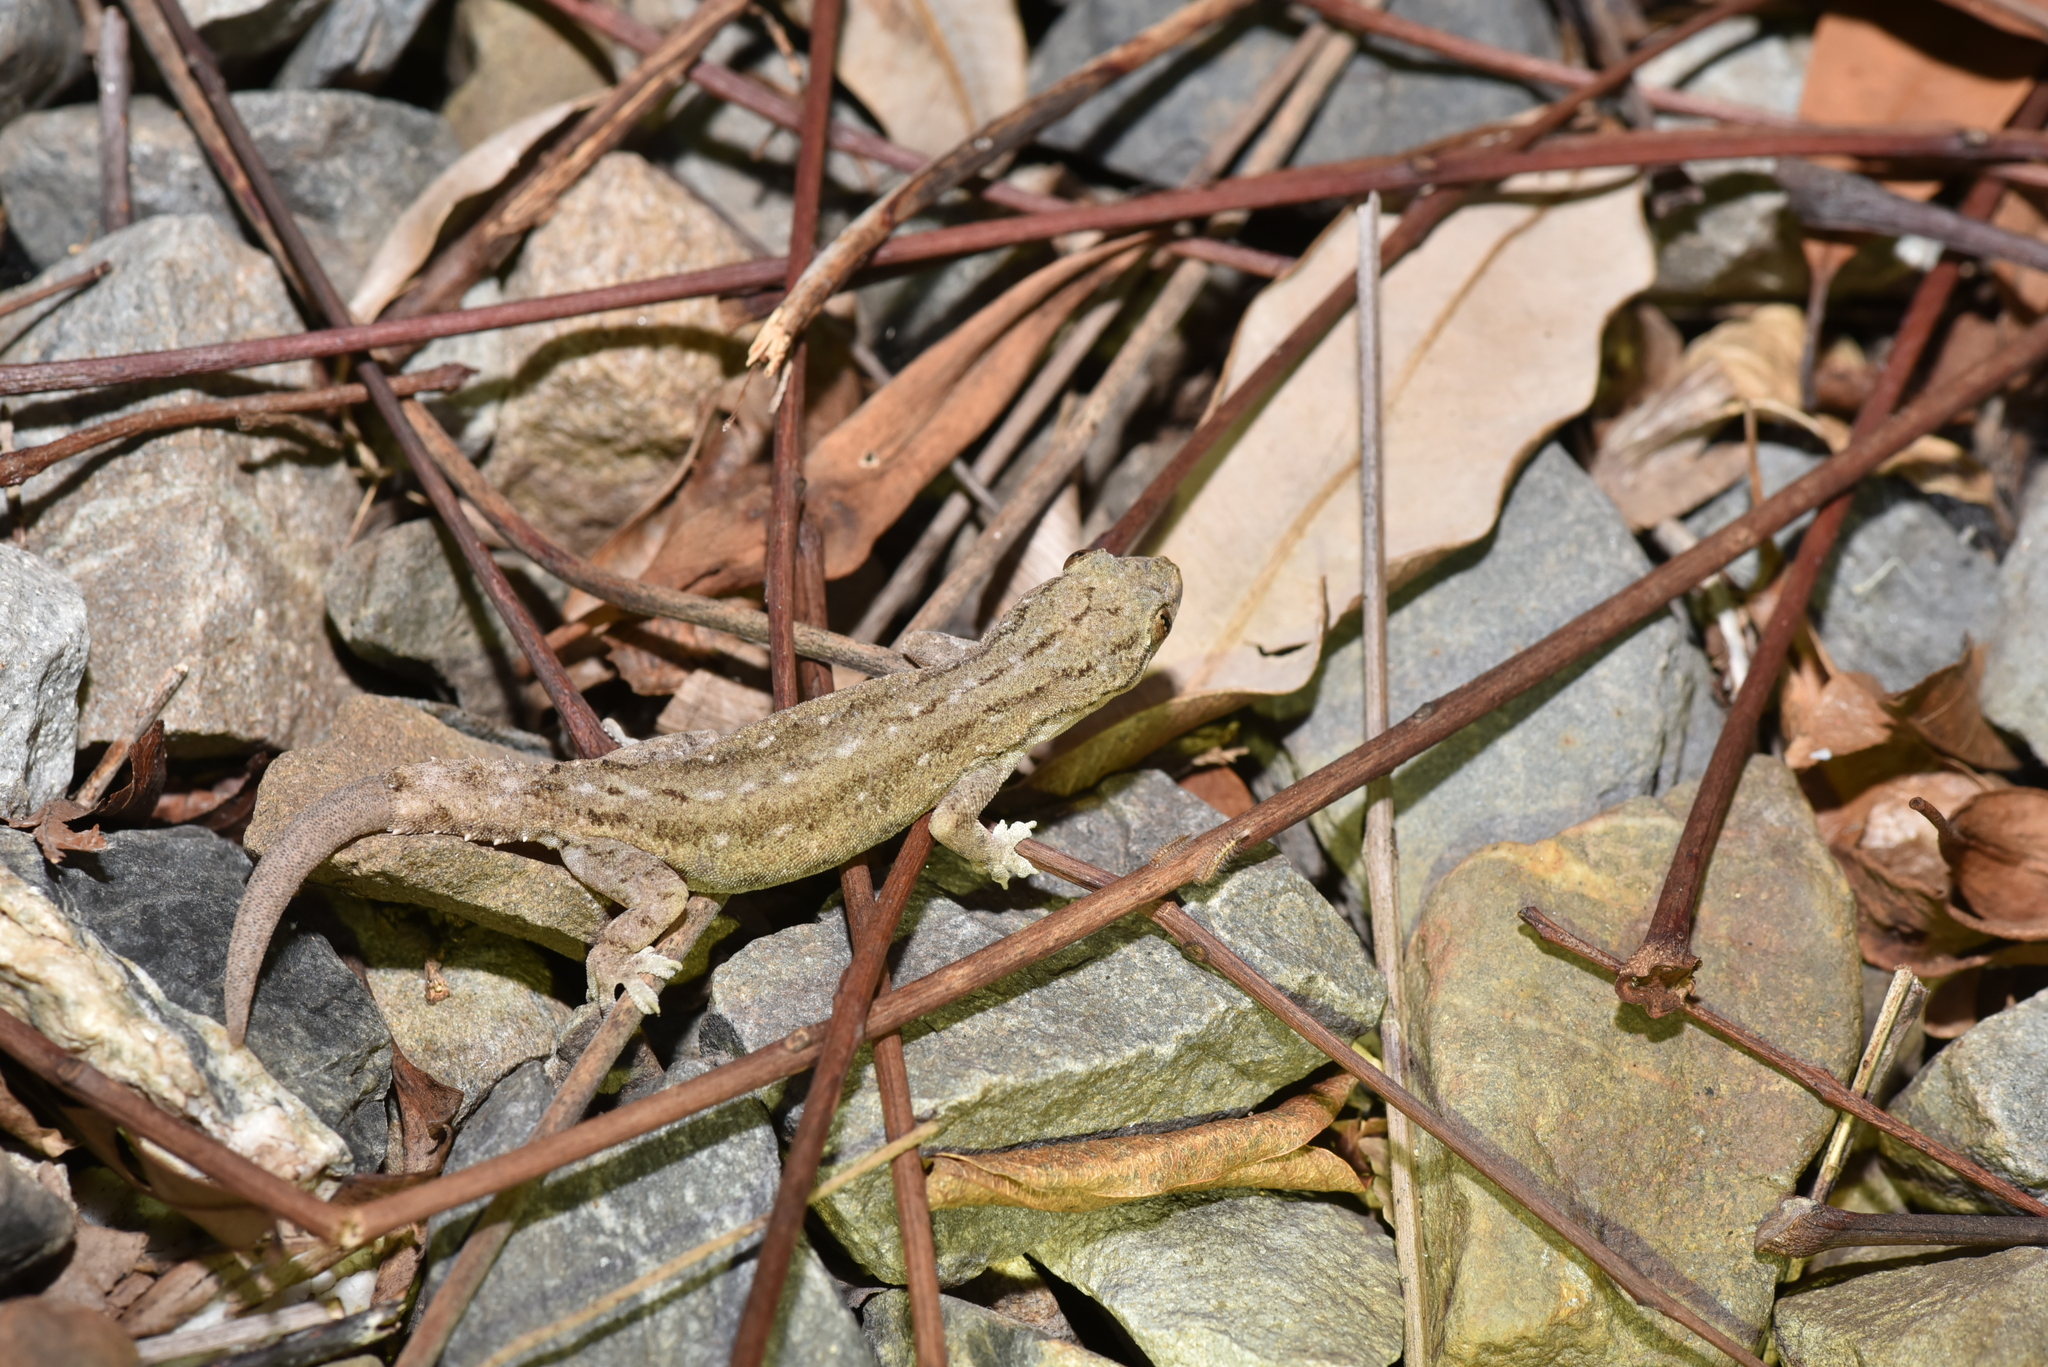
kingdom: Animalia
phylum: Chordata
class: Squamata
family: Gekkonidae
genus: Hemidactylus
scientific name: Hemidactylus frenatus
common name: Common house gecko
